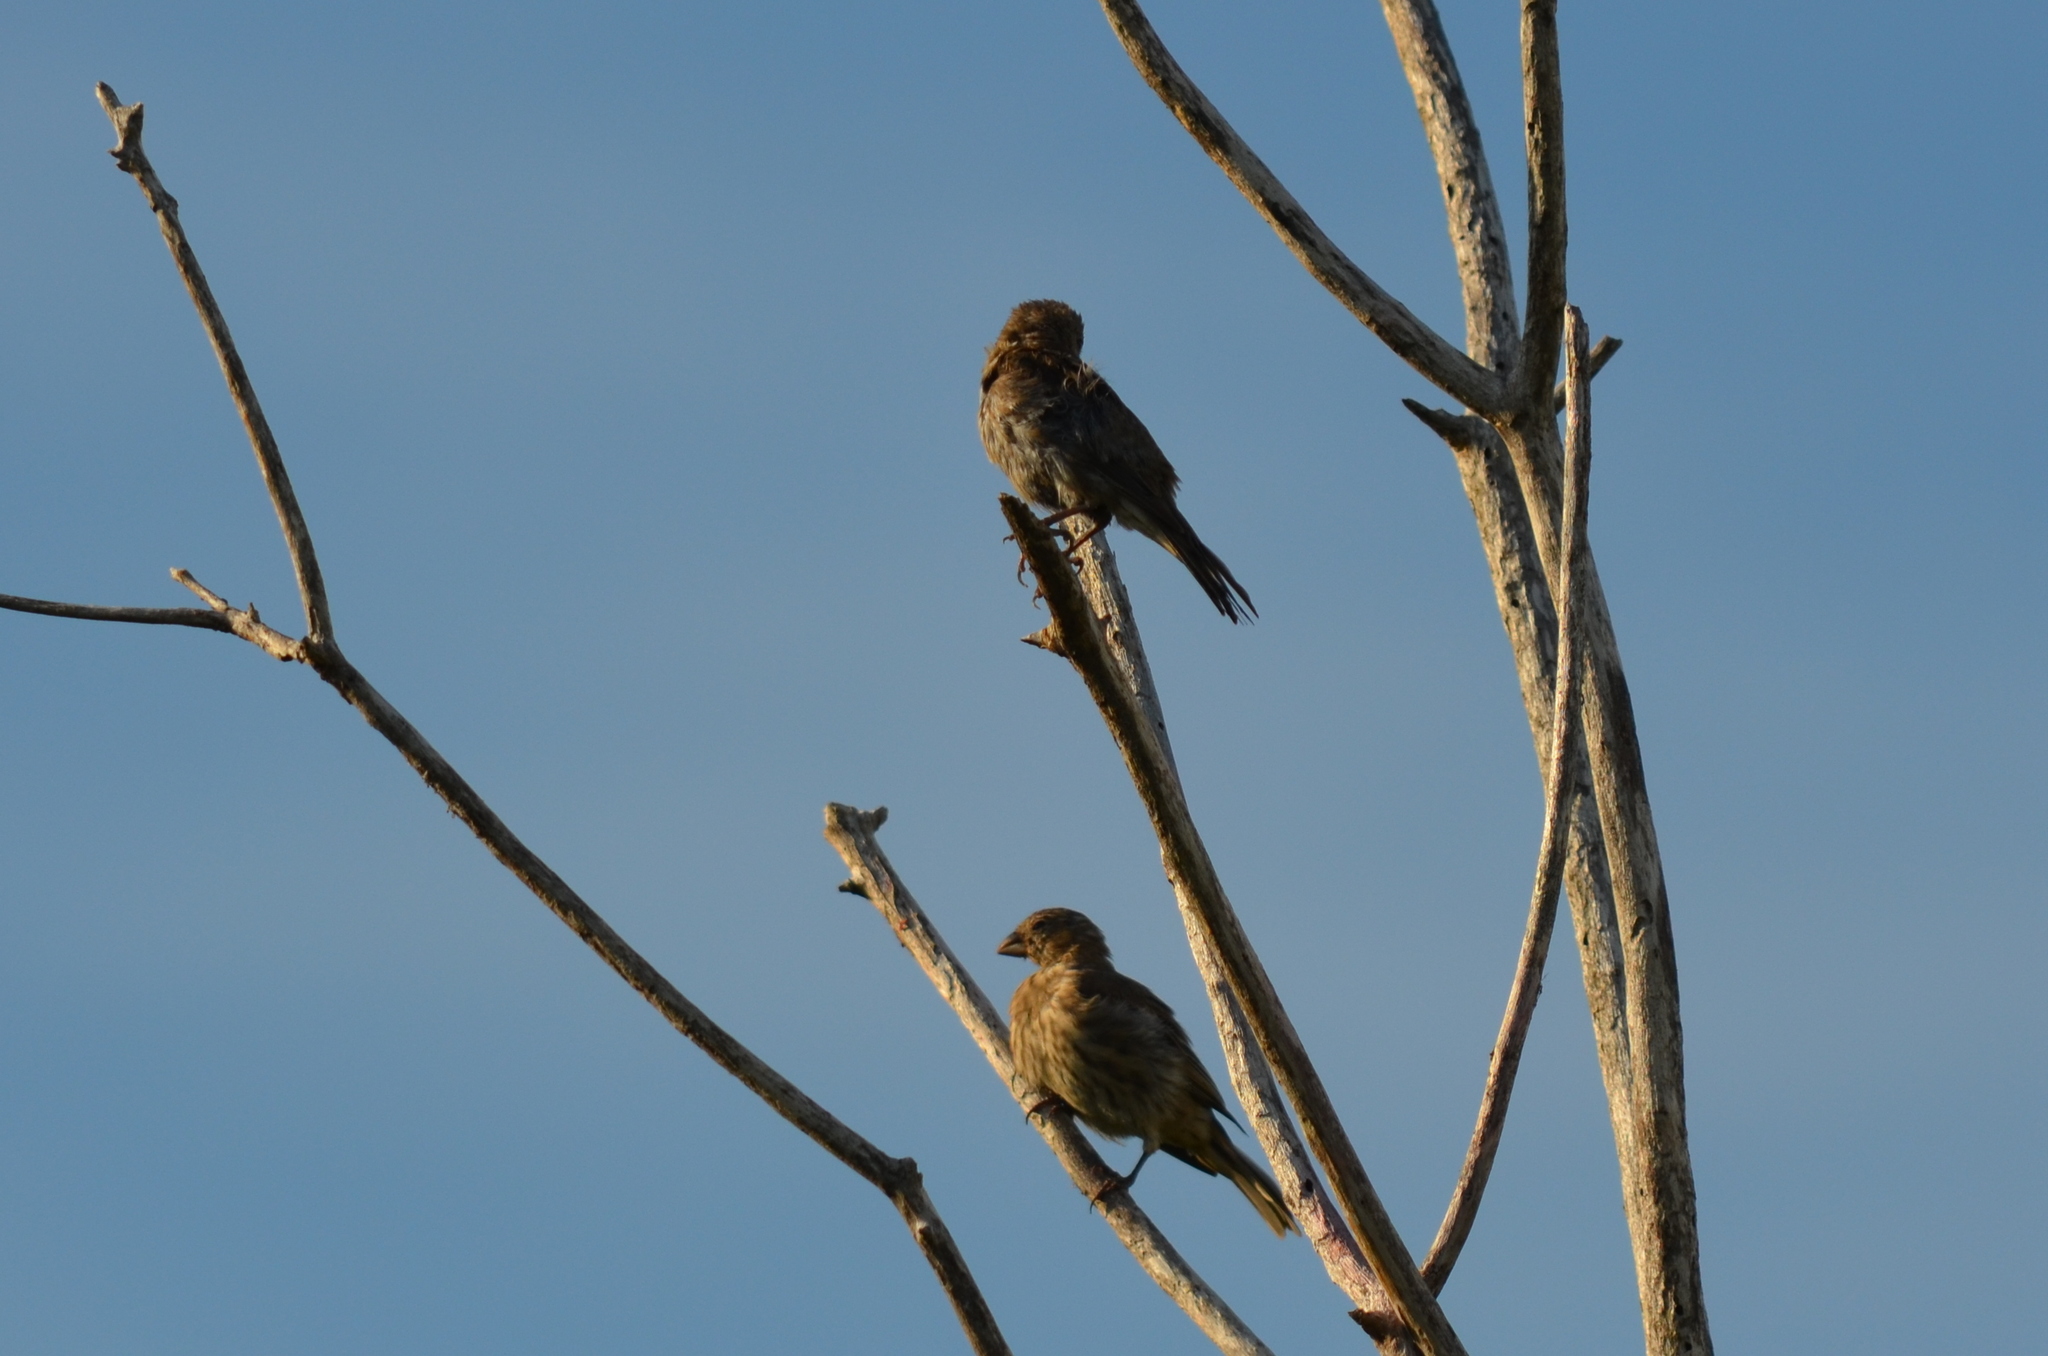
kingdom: Animalia
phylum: Chordata
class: Aves
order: Passeriformes
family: Fringillidae
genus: Haemorhous
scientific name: Haemorhous mexicanus
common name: House finch
